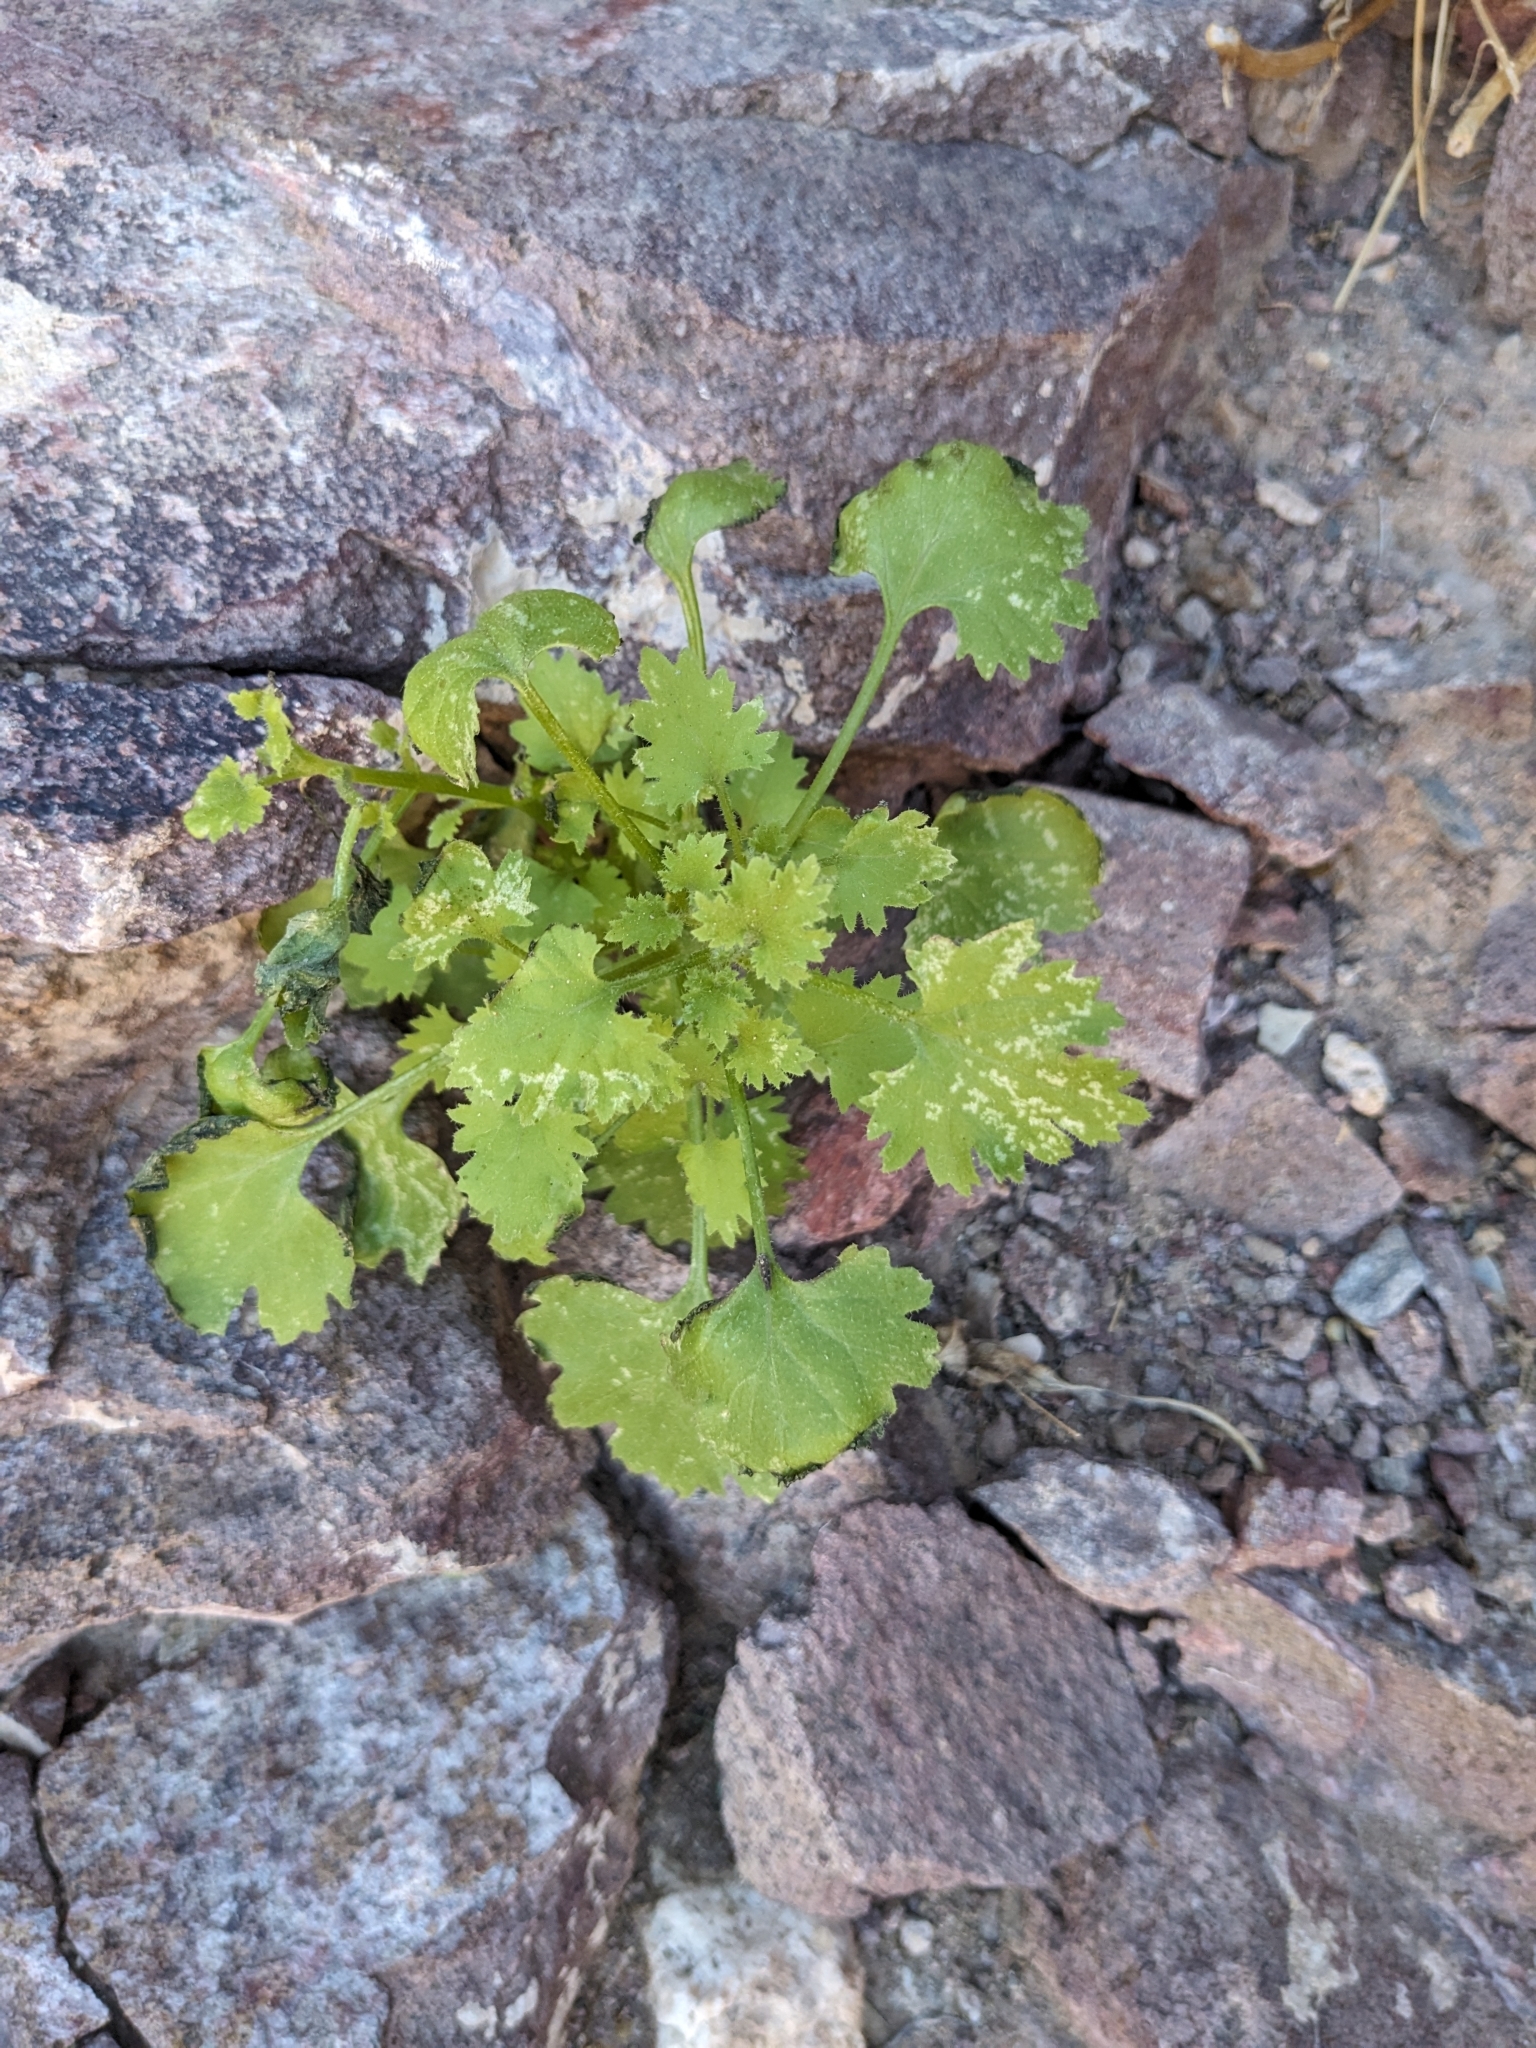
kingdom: Plantae
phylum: Tracheophyta
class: Magnoliopsida
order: Asterales
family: Asteraceae
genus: Laphamia
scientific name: Laphamia emoryi
